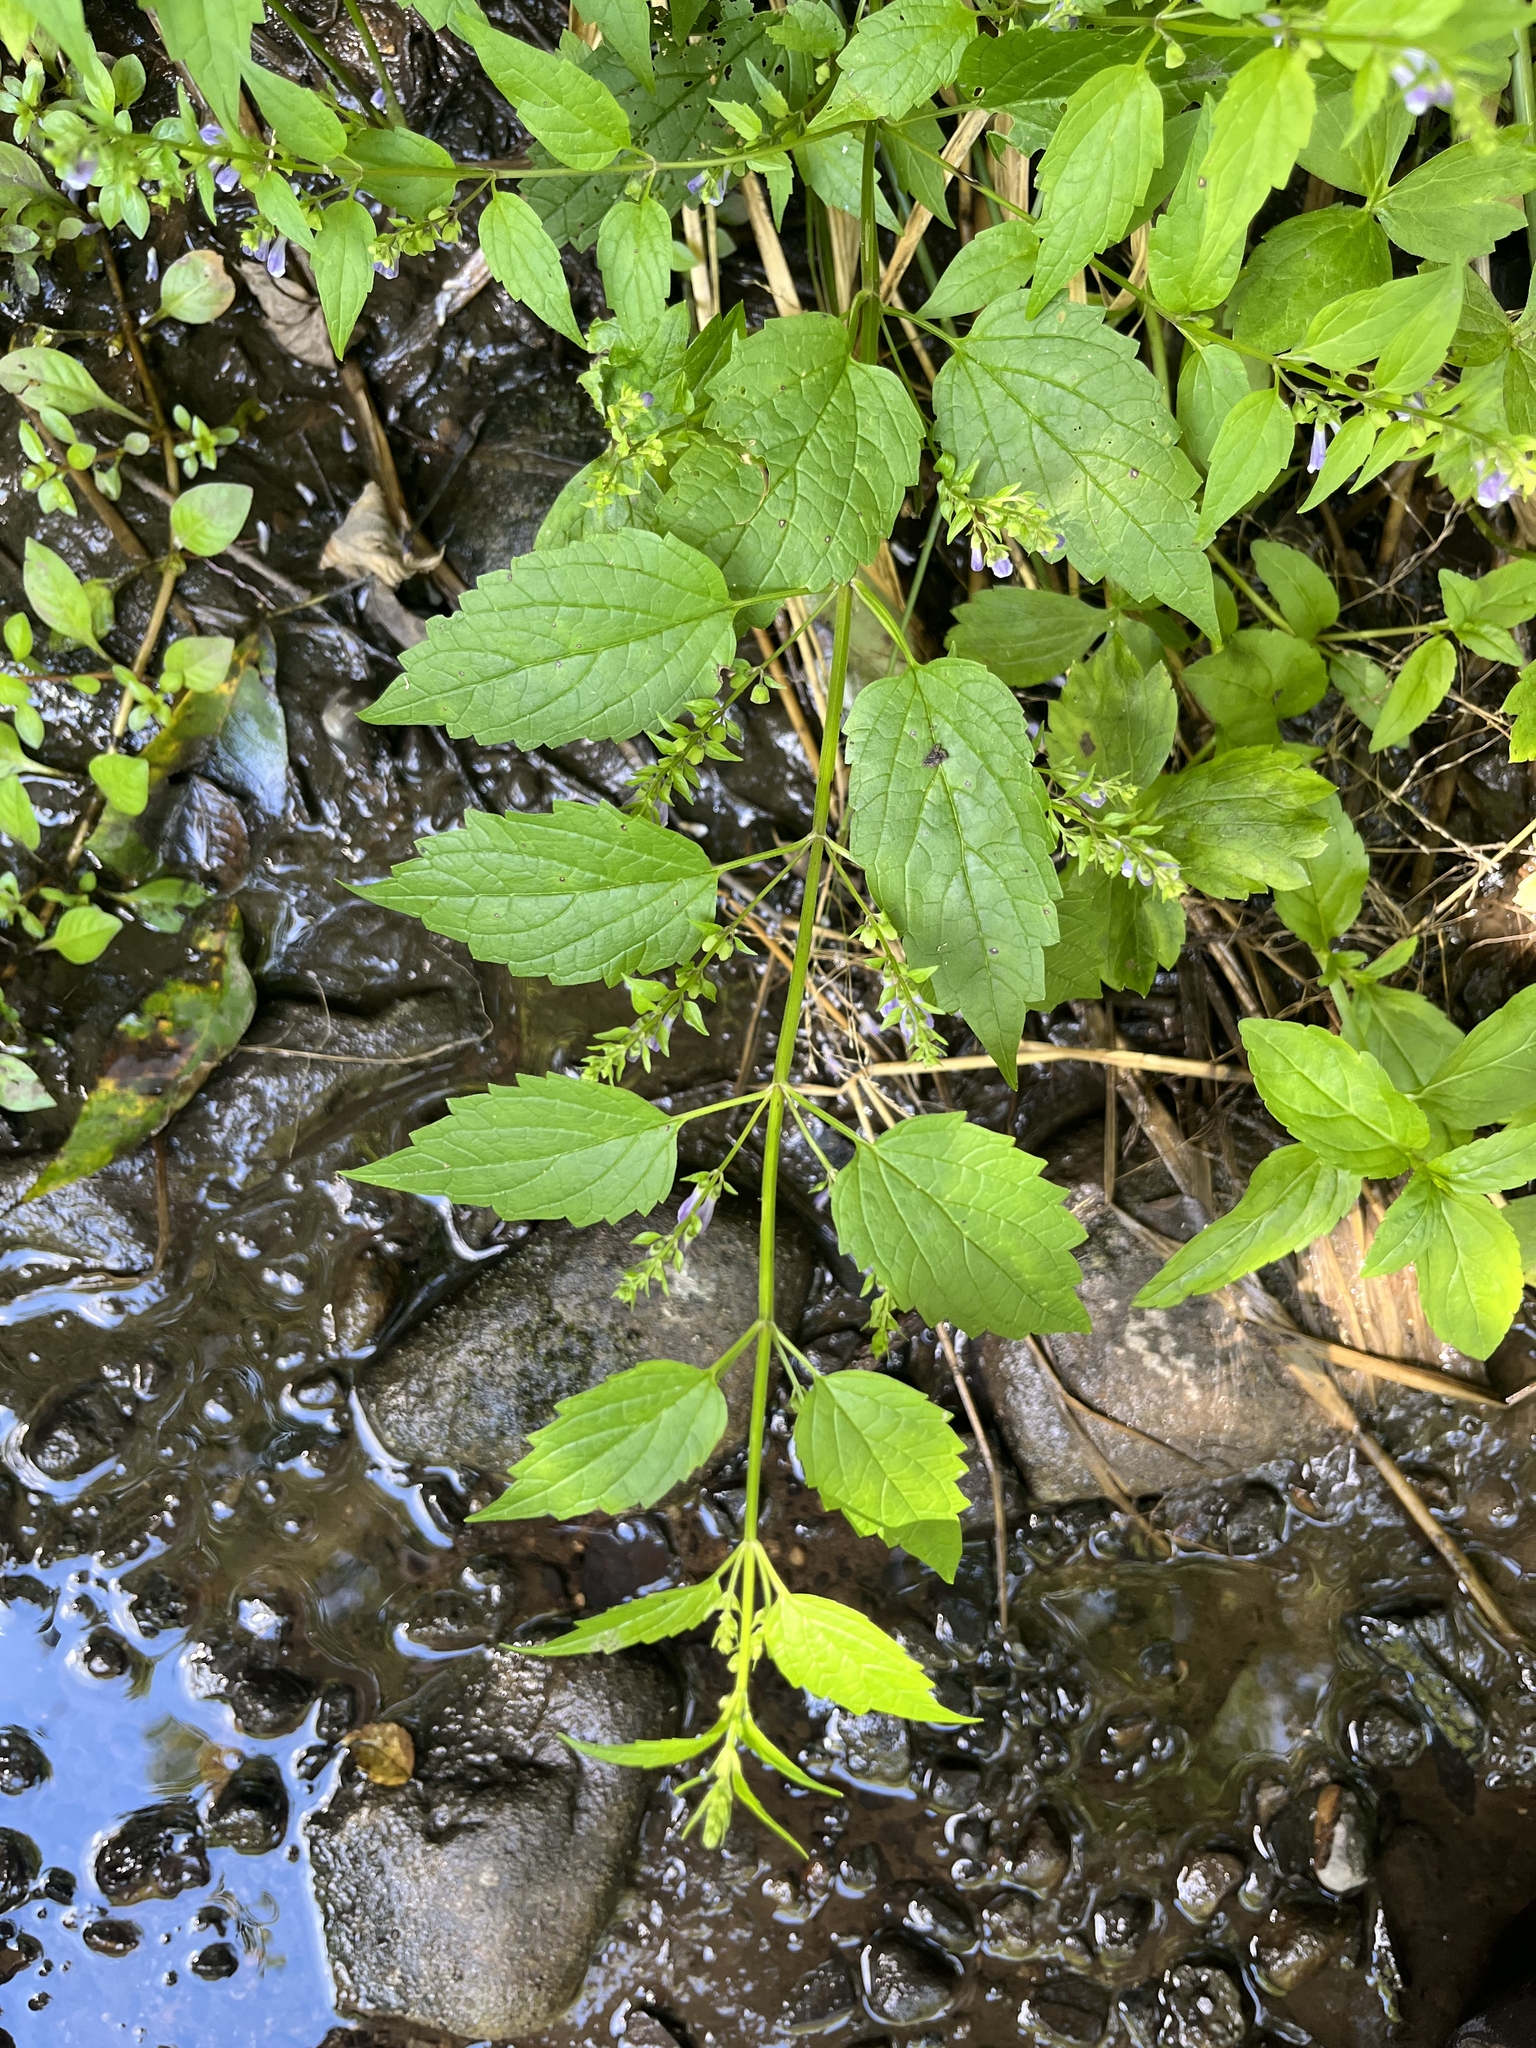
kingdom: Plantae
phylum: Tracheophyta
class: Magnoliopsida
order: Lamiales
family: Lamiaceae
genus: Scutellaria
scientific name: Scutellaria lateriflora
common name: Blue skullcap
